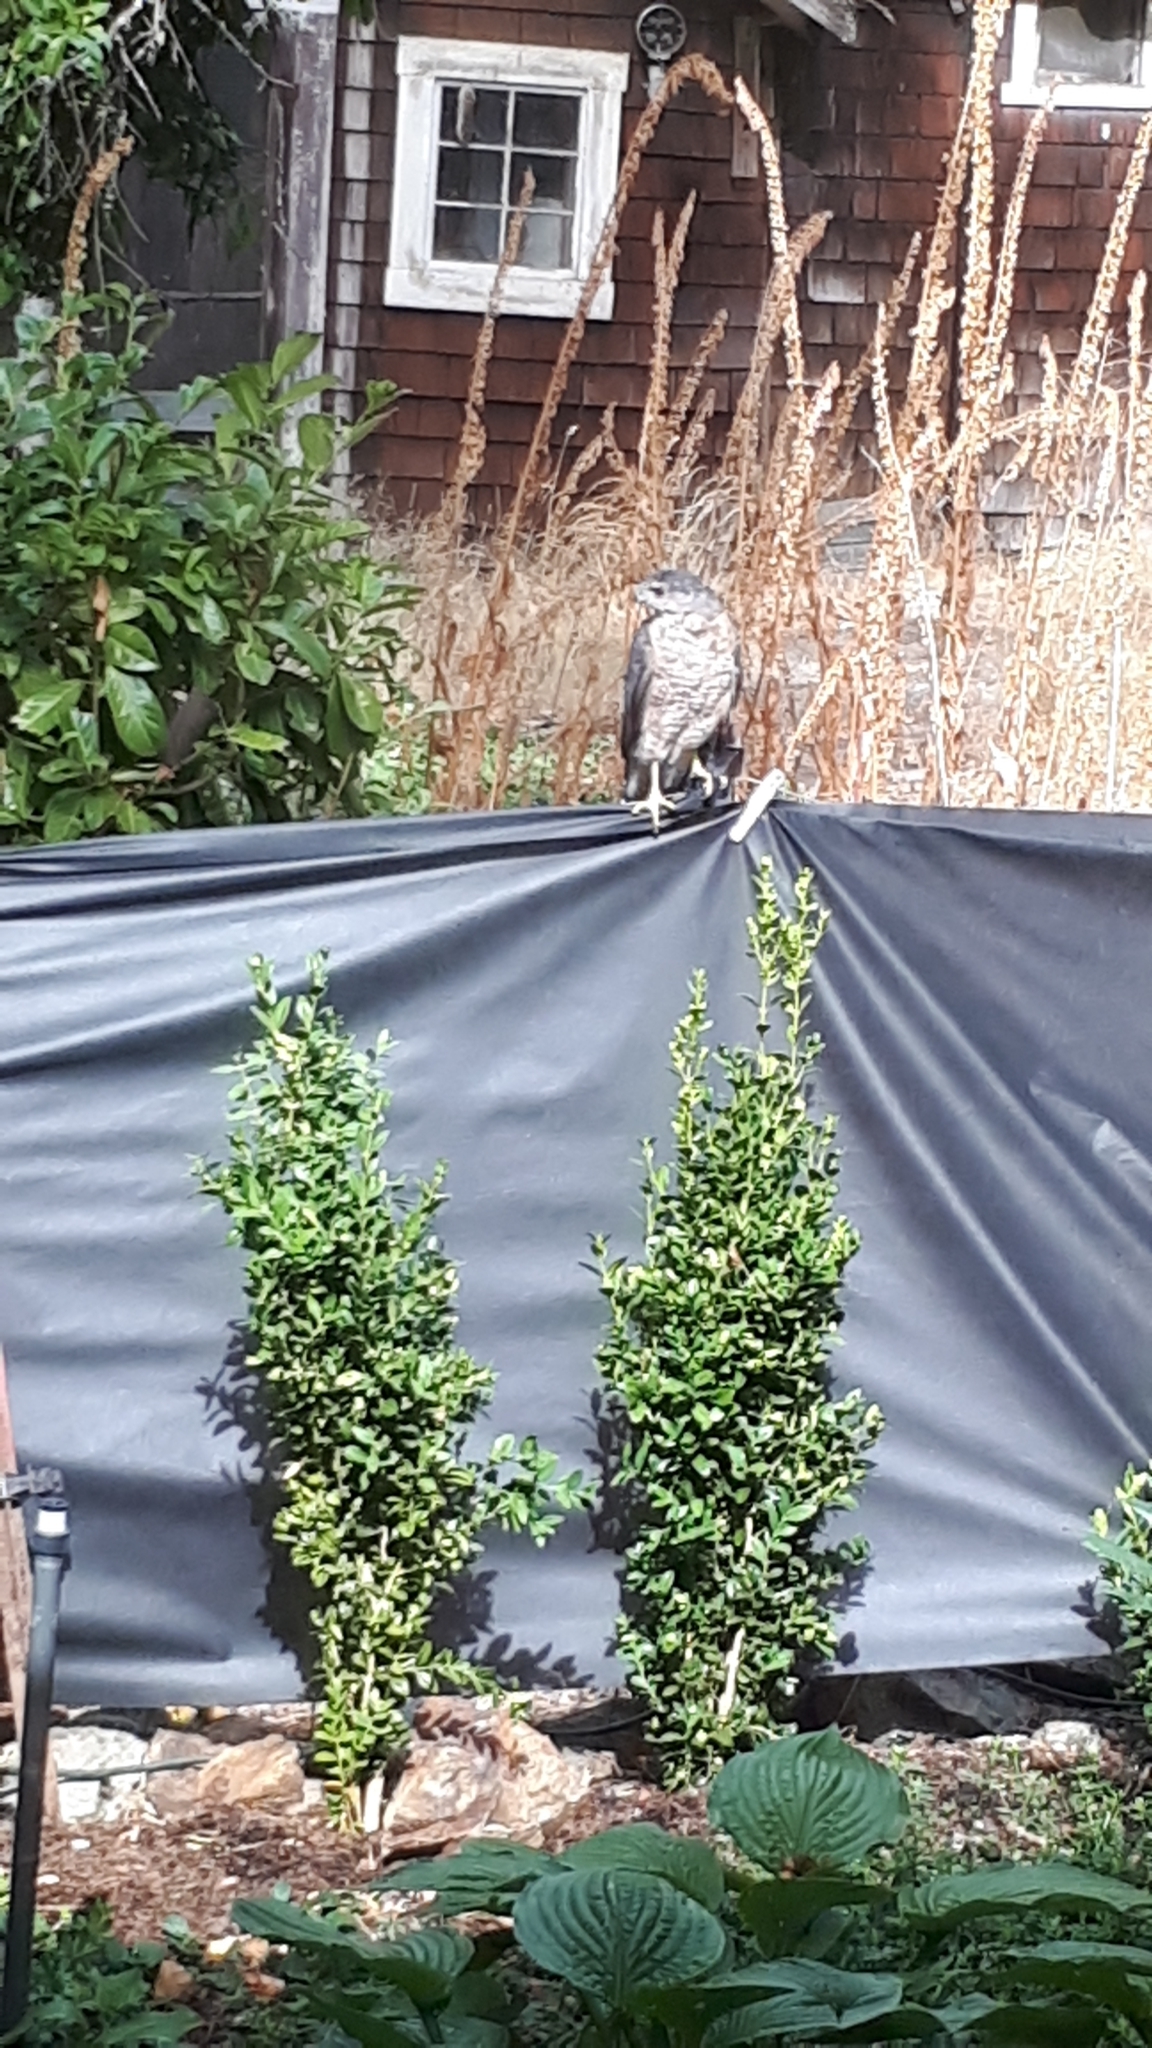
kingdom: Animalia
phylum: Chordata
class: Aves
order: Accipitriformes
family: Accipitridae
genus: Accipiter
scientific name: Accipiter cooperii
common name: Cooper's hawk
